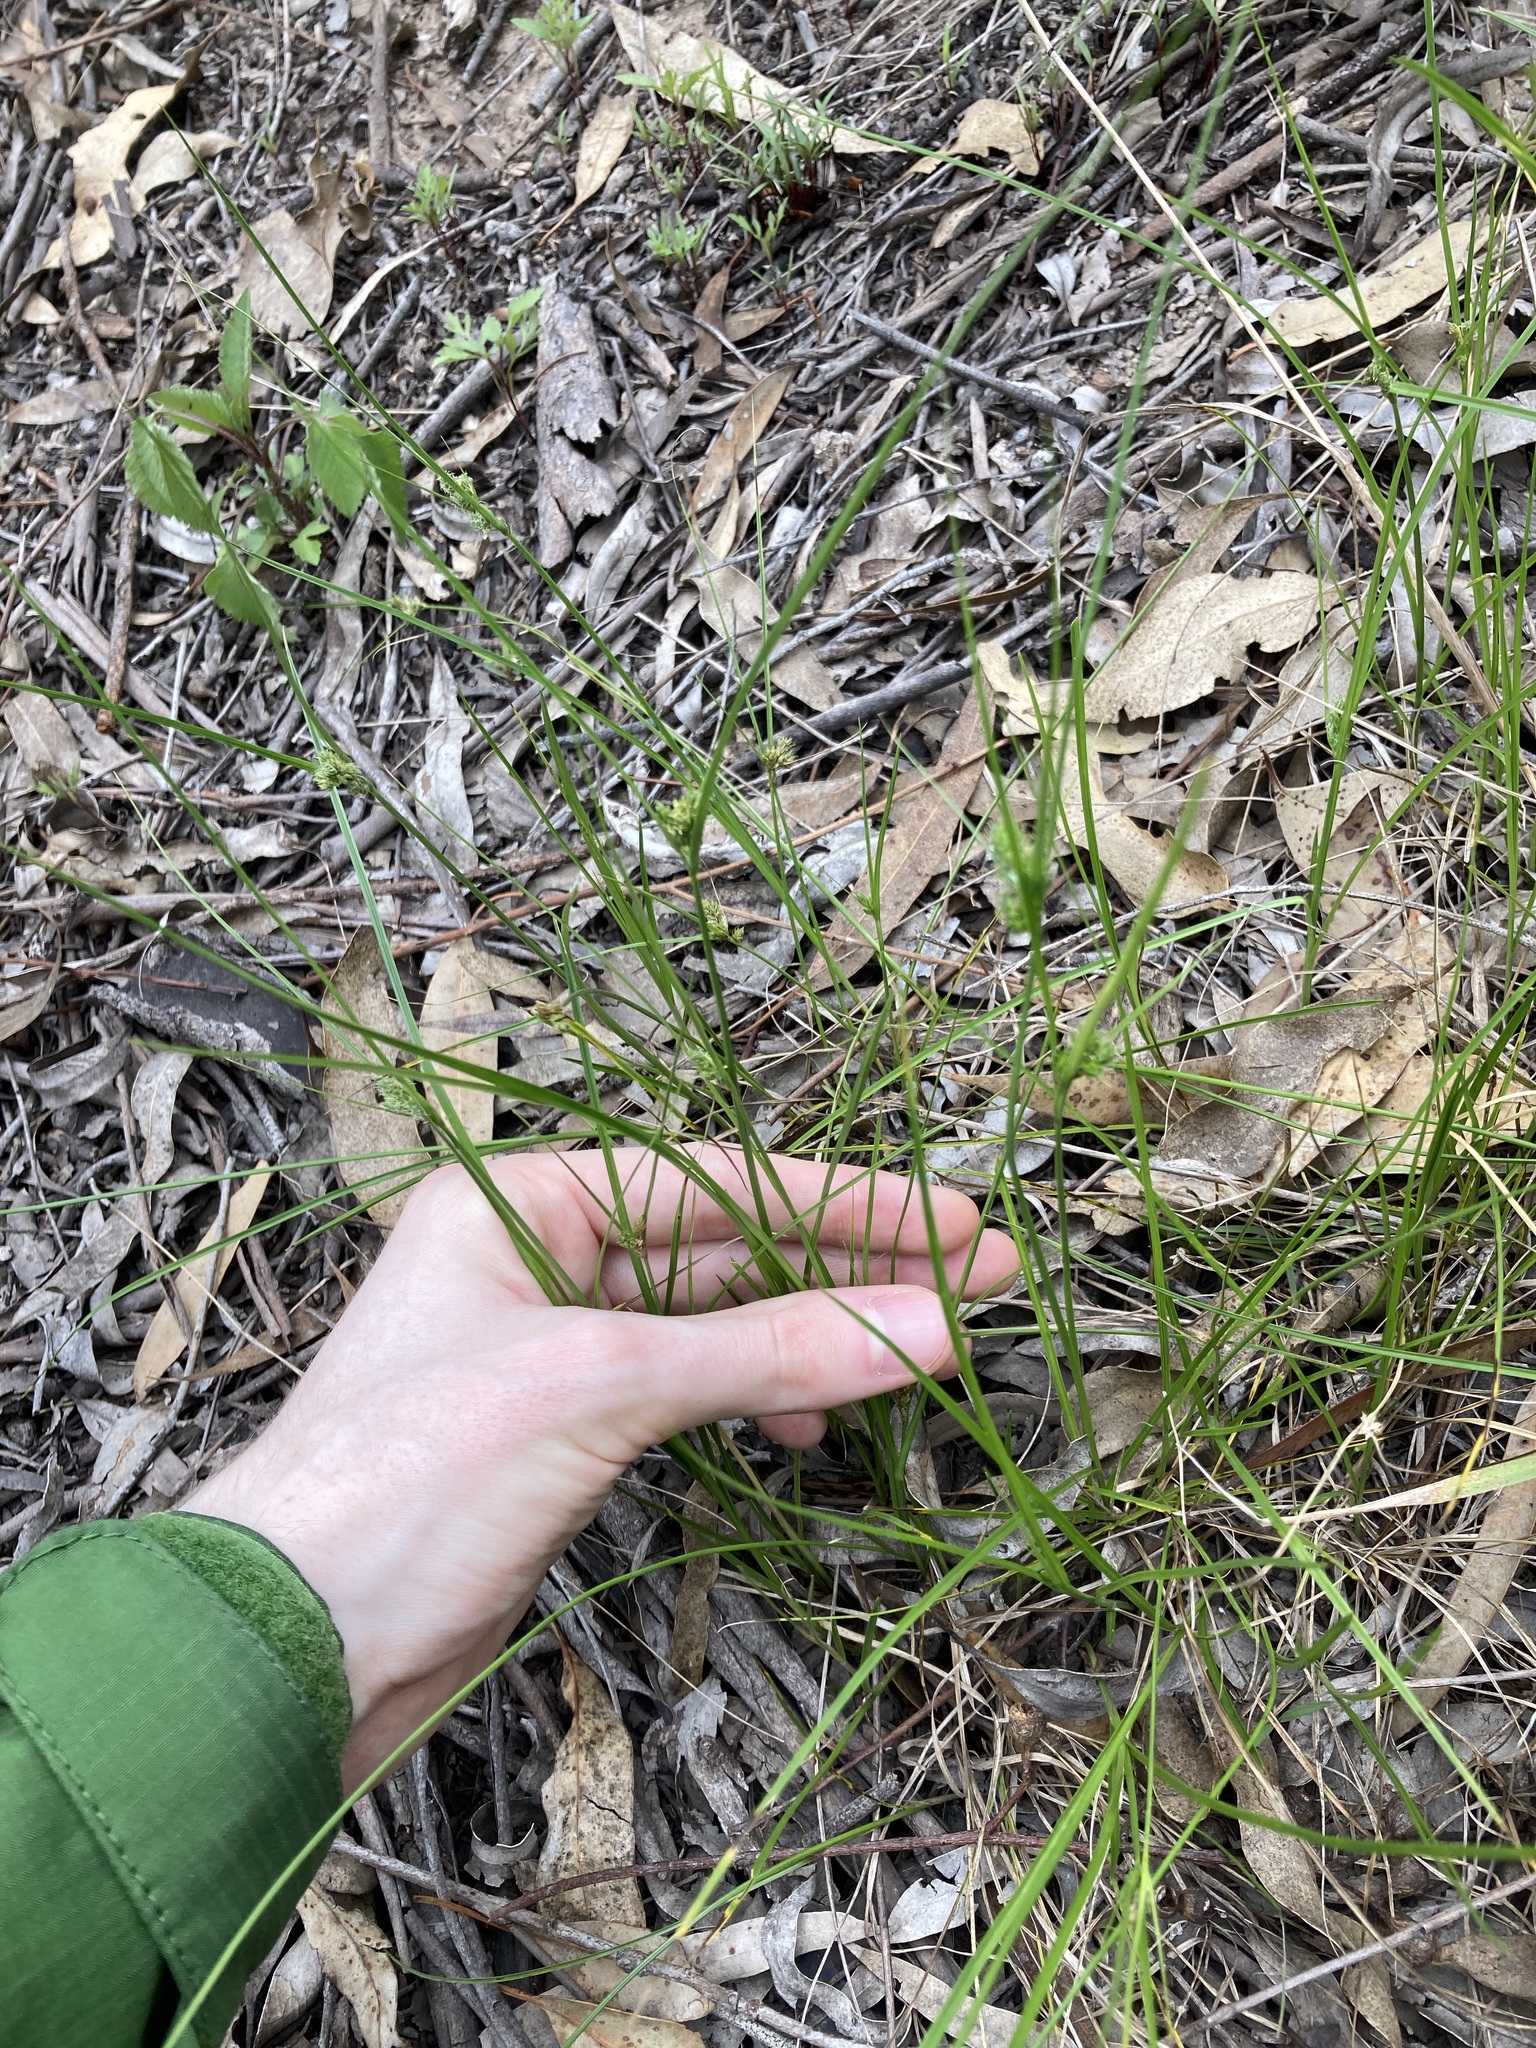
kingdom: Plantae
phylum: Tracheophyta
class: Liliopsida
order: Poales
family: Cyperaceae
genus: Carex
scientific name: Carex inversa
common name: Knob sedge
